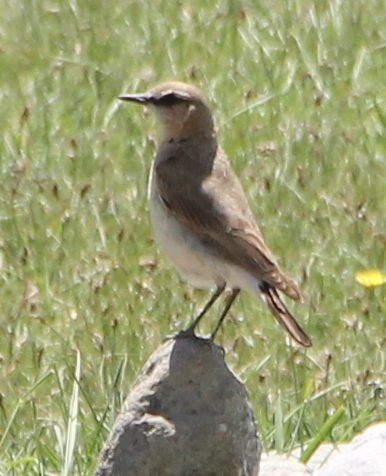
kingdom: Animalia
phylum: Chordata
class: Aves
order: Passeriformes
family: Muscicapidae
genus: Oenanthe
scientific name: Oenanthe isabellina
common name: Isabelline wheatear
